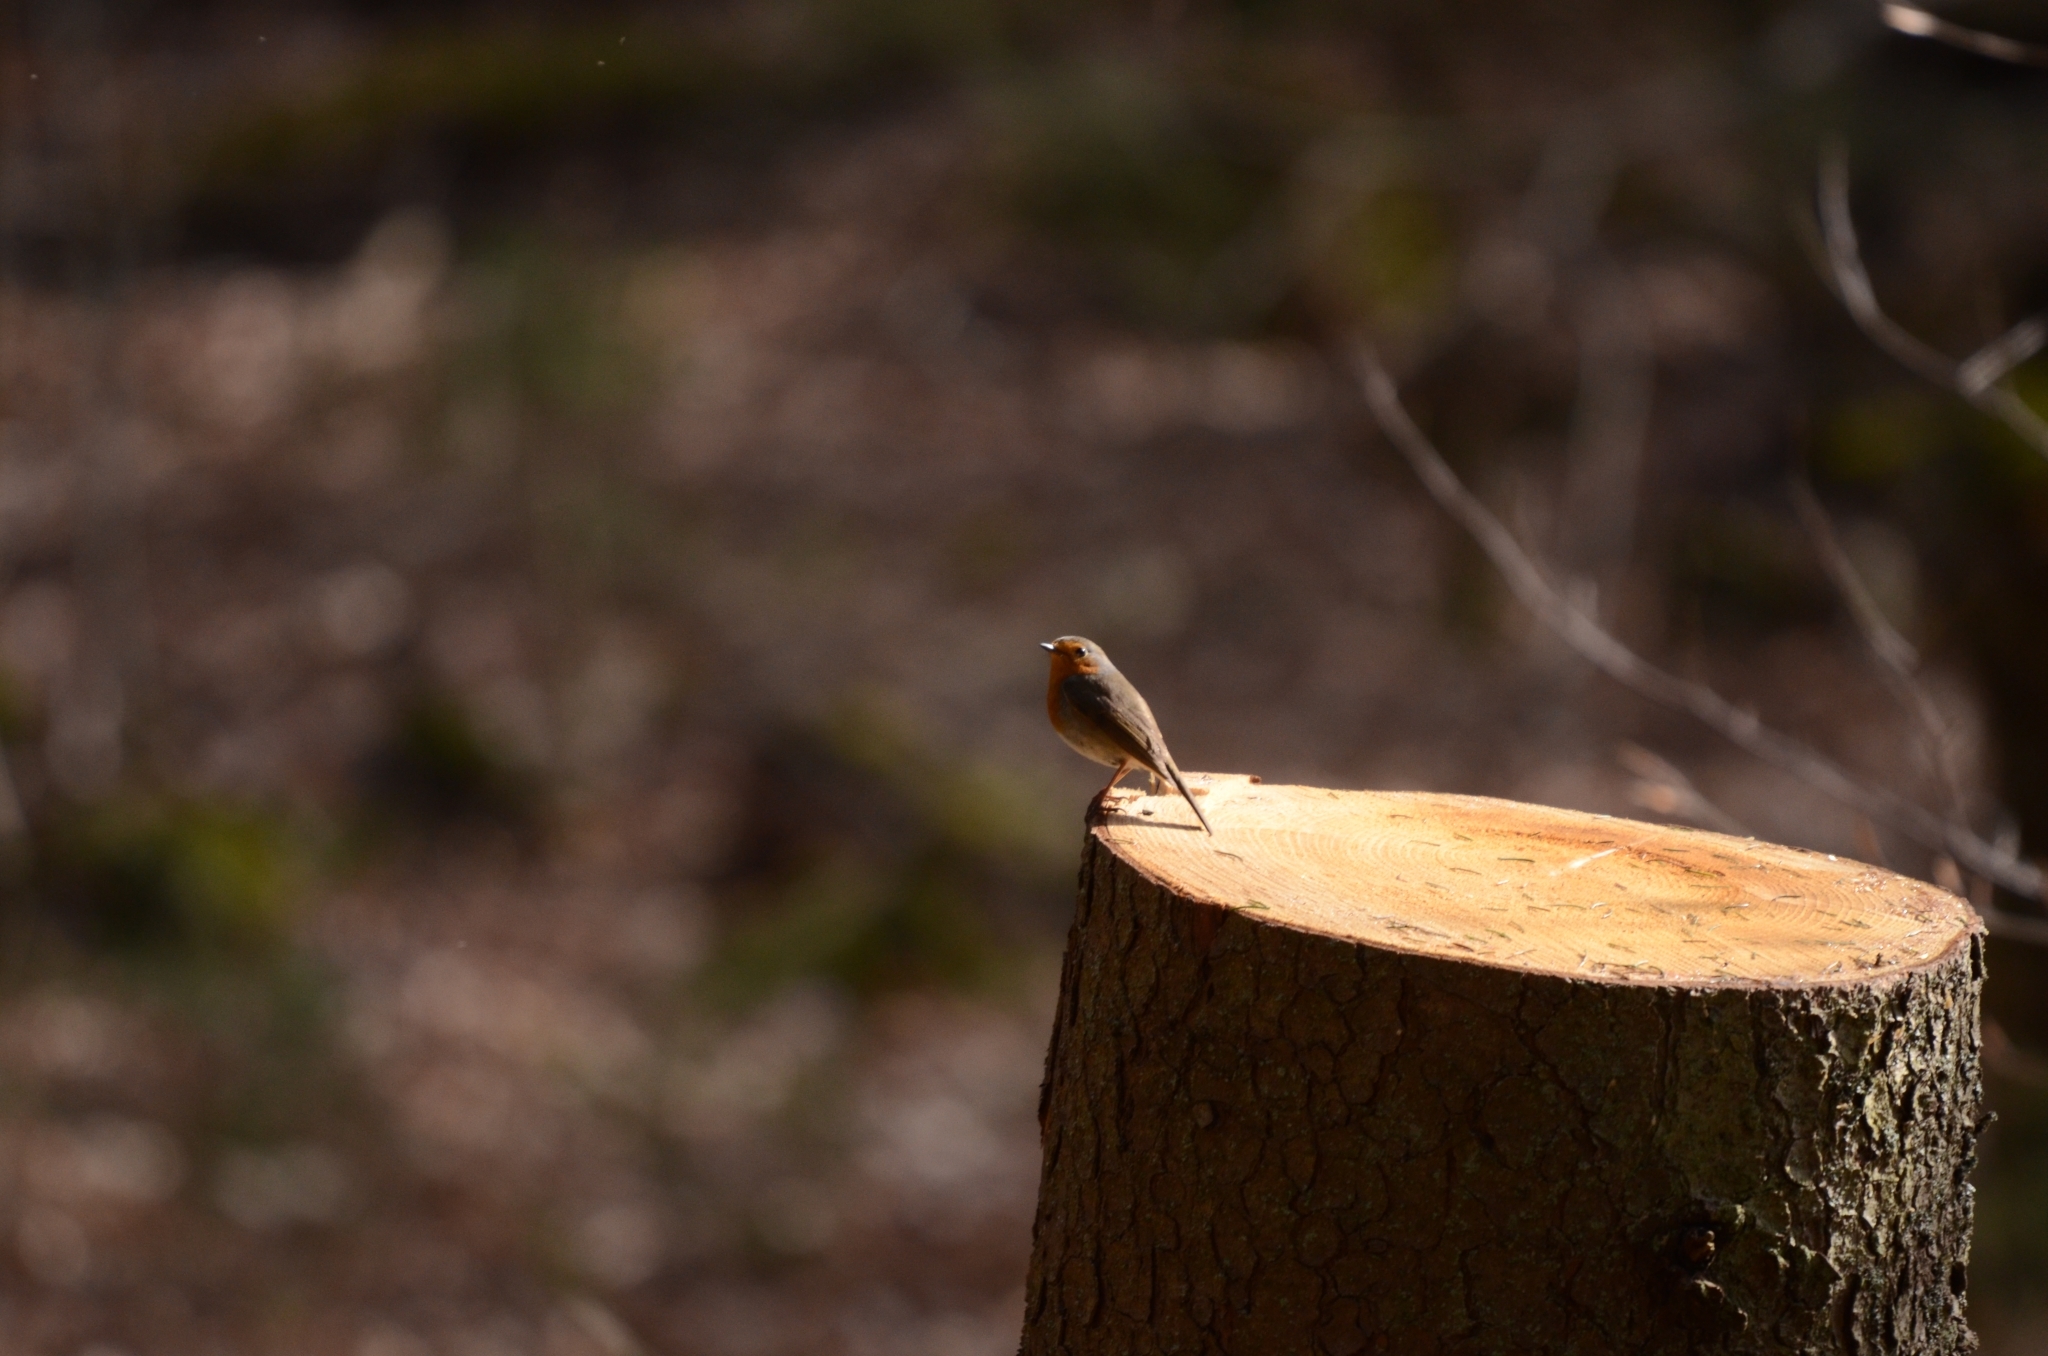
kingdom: Animalia
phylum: Chordata
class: Aves
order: Passeriformes
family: Muscicapidae
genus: Erithacus
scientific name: Erithacus rubecula
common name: European robin
